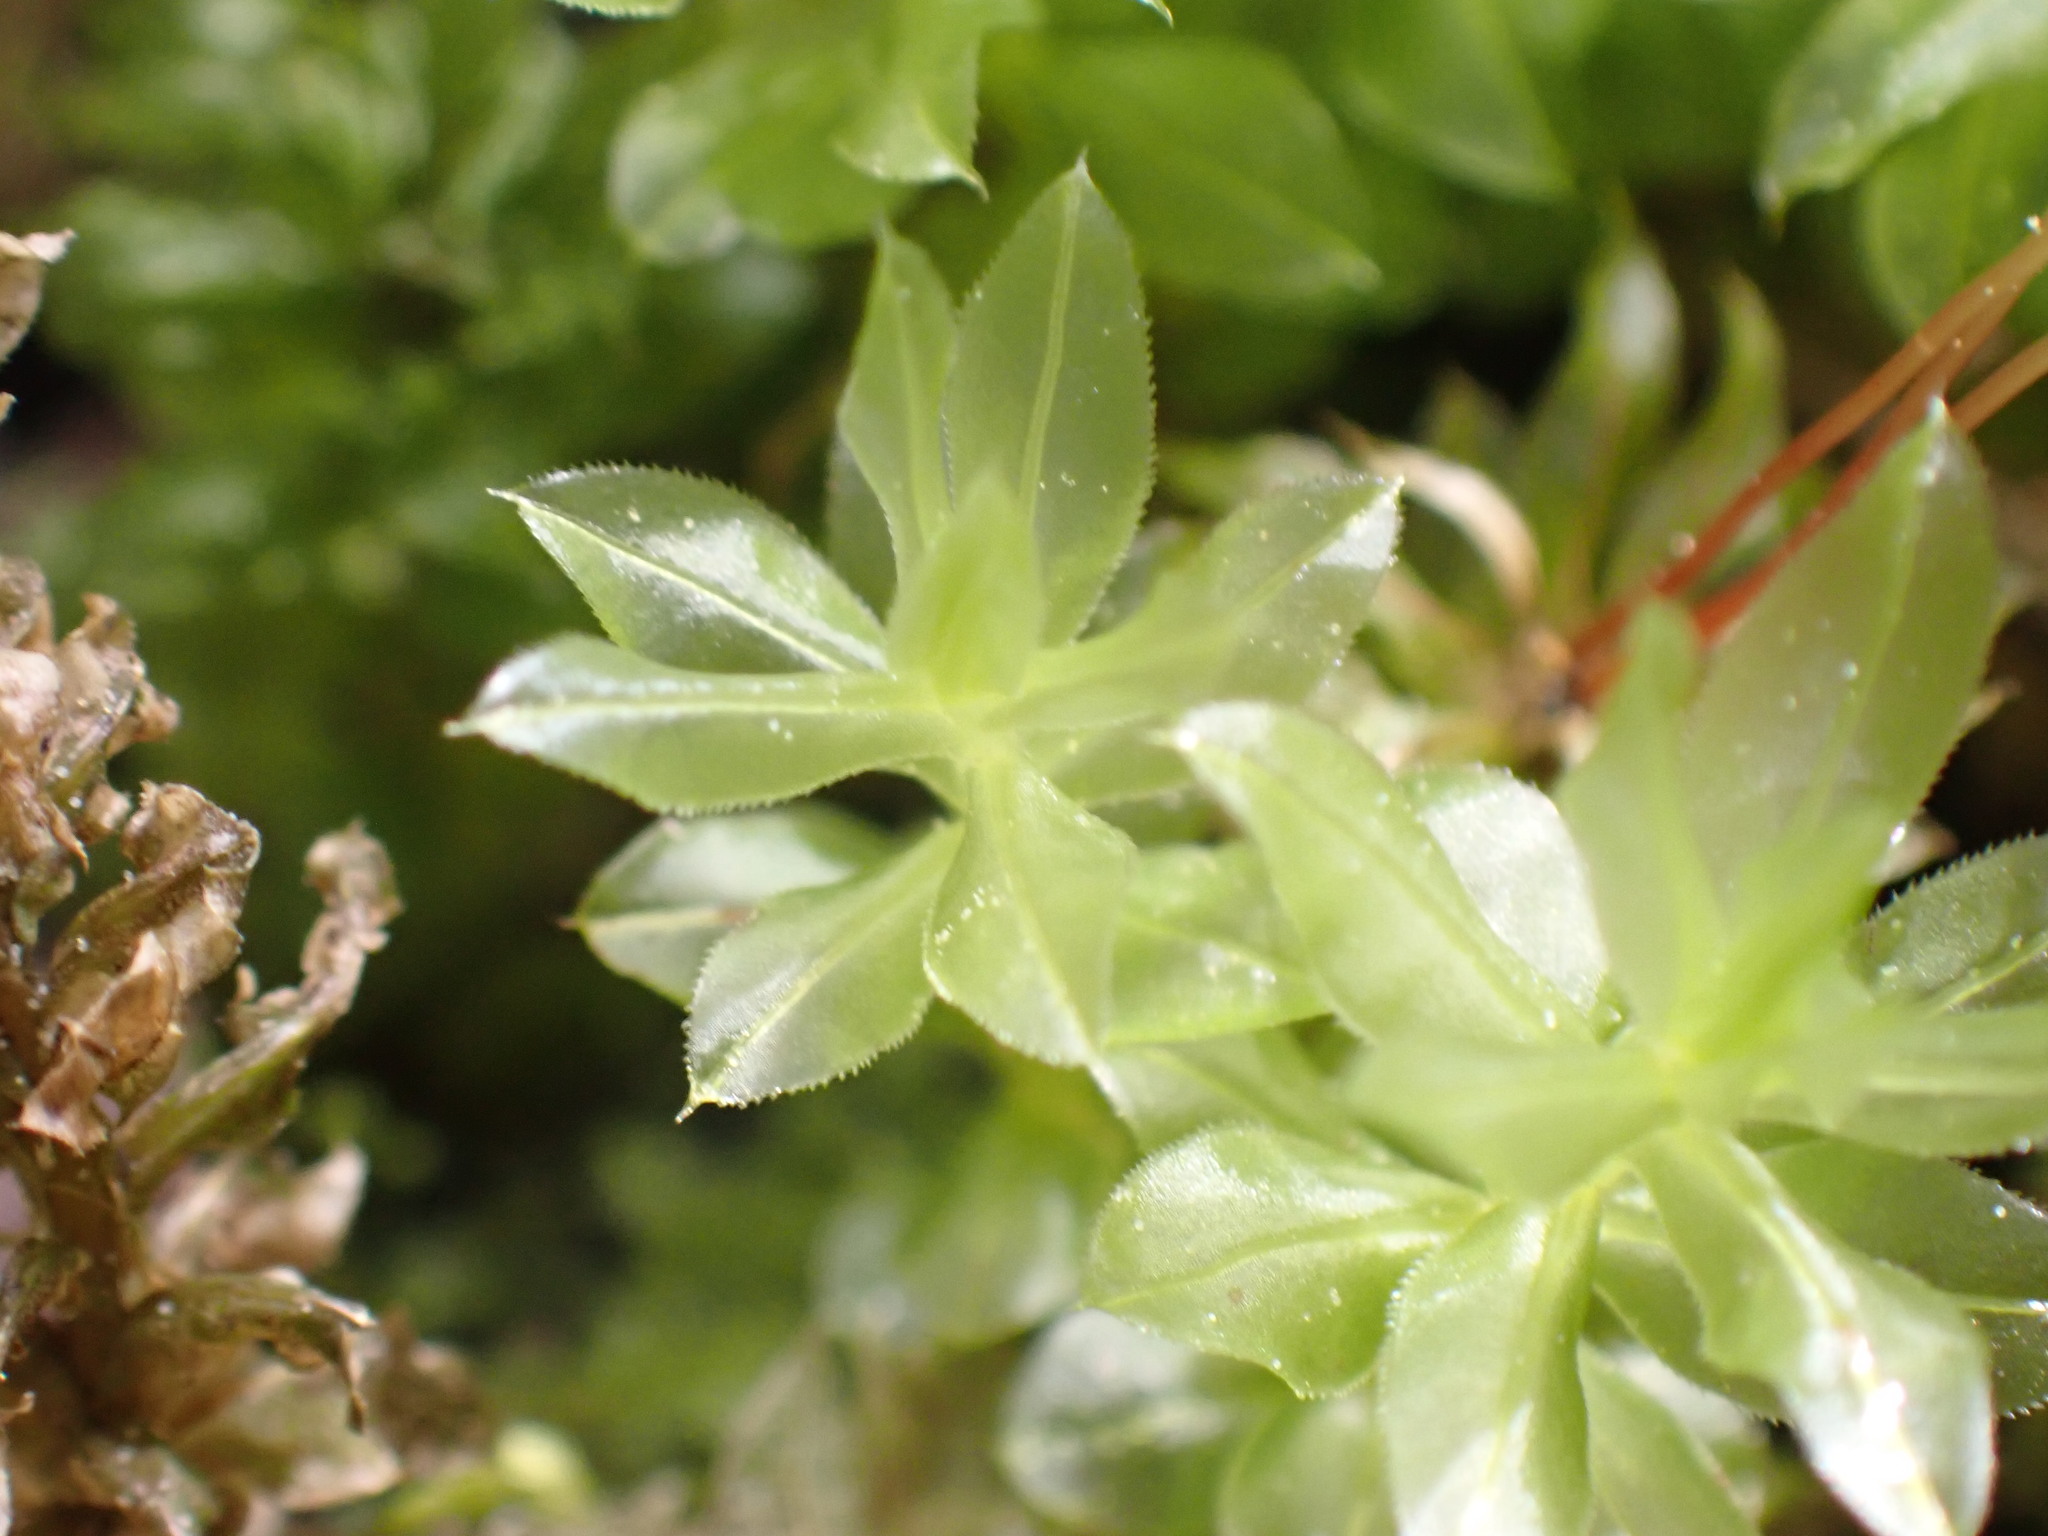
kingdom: Plantae
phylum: Bryophyta
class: Bryopsida
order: Bryales
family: Mniaceae
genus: Plagiomnium
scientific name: Plagiomnium insigne
